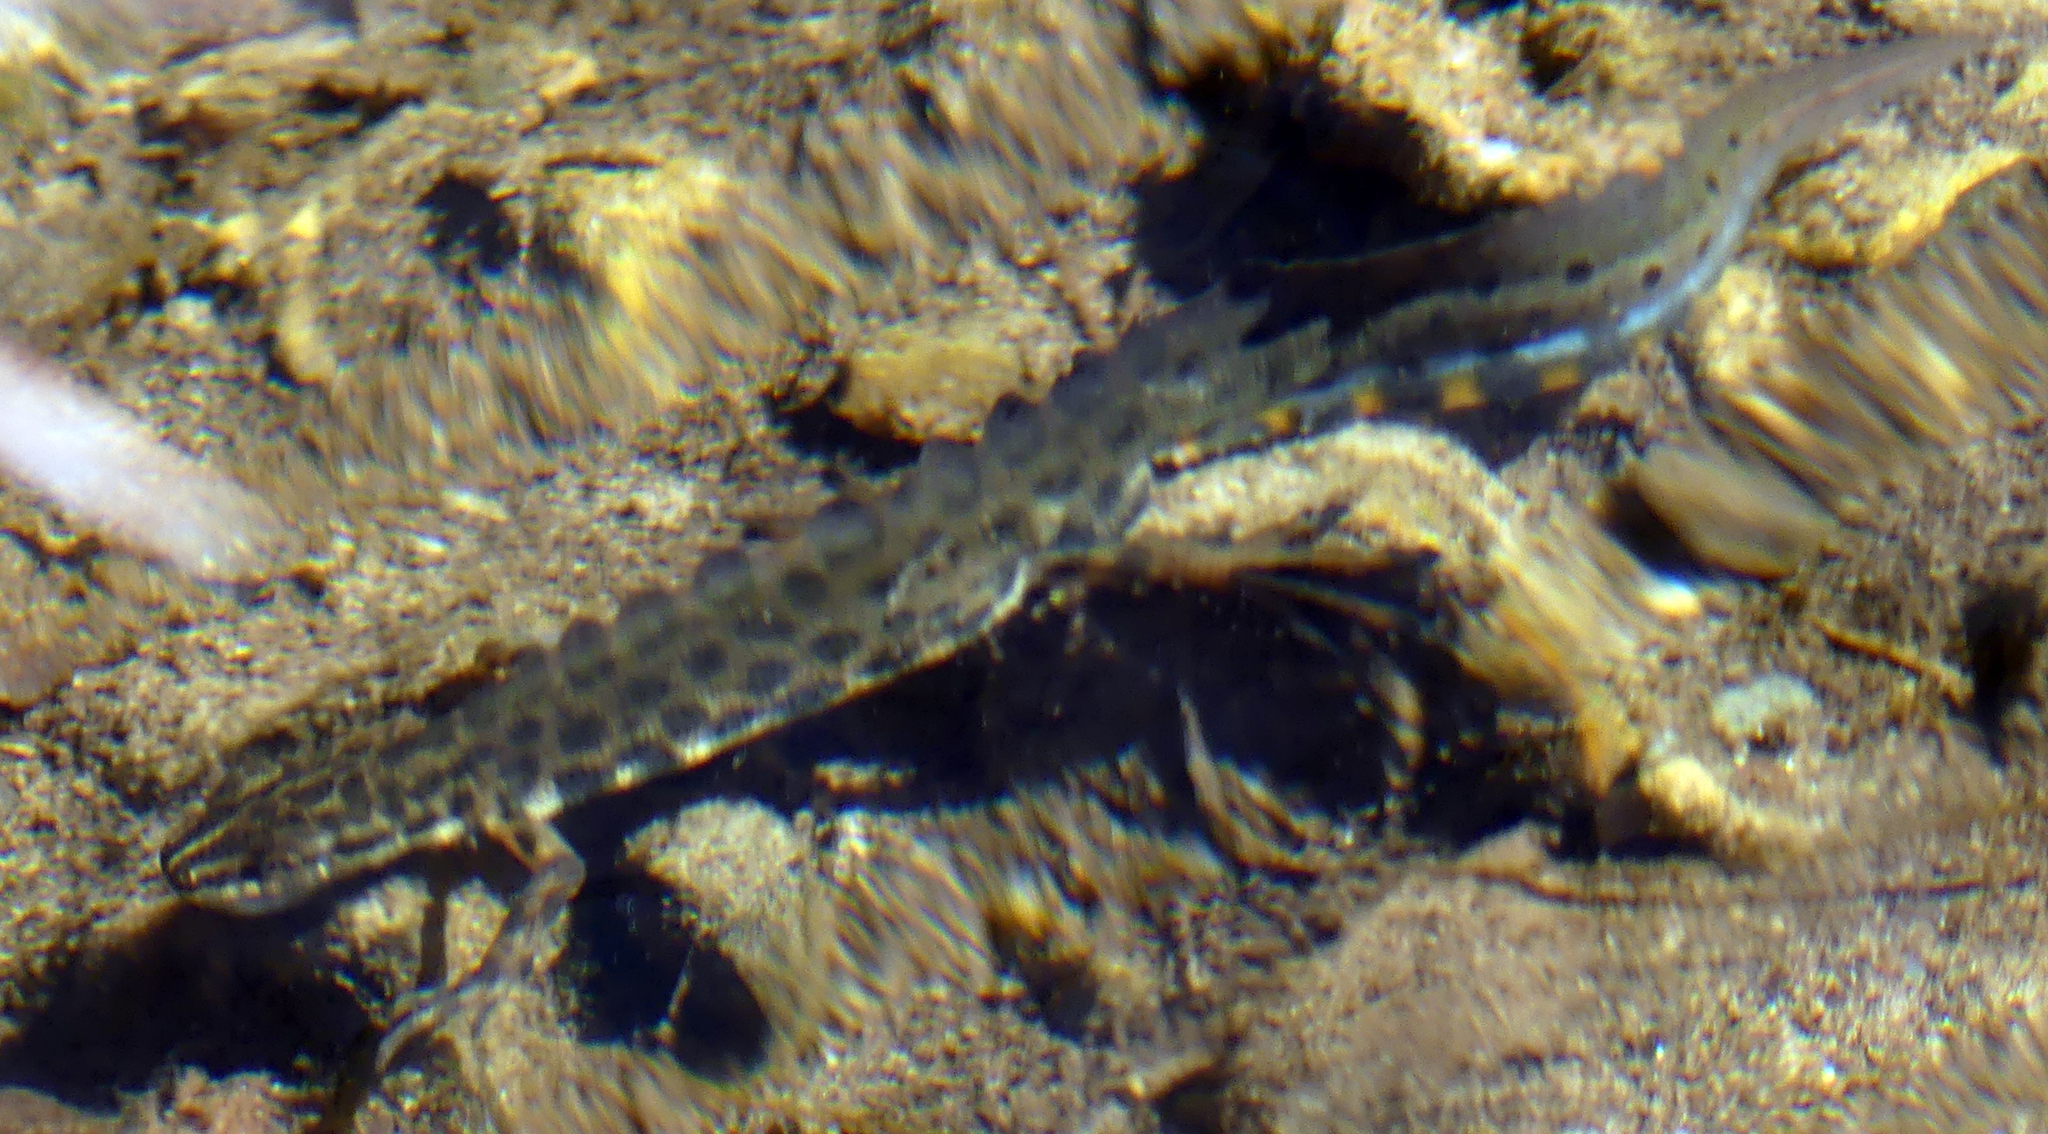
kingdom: Animalia
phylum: Chordata
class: Amphibia
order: Caudata
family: Salamandridae
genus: Lissotriton
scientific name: Lissotriton vulgaris
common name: Smooth newt
